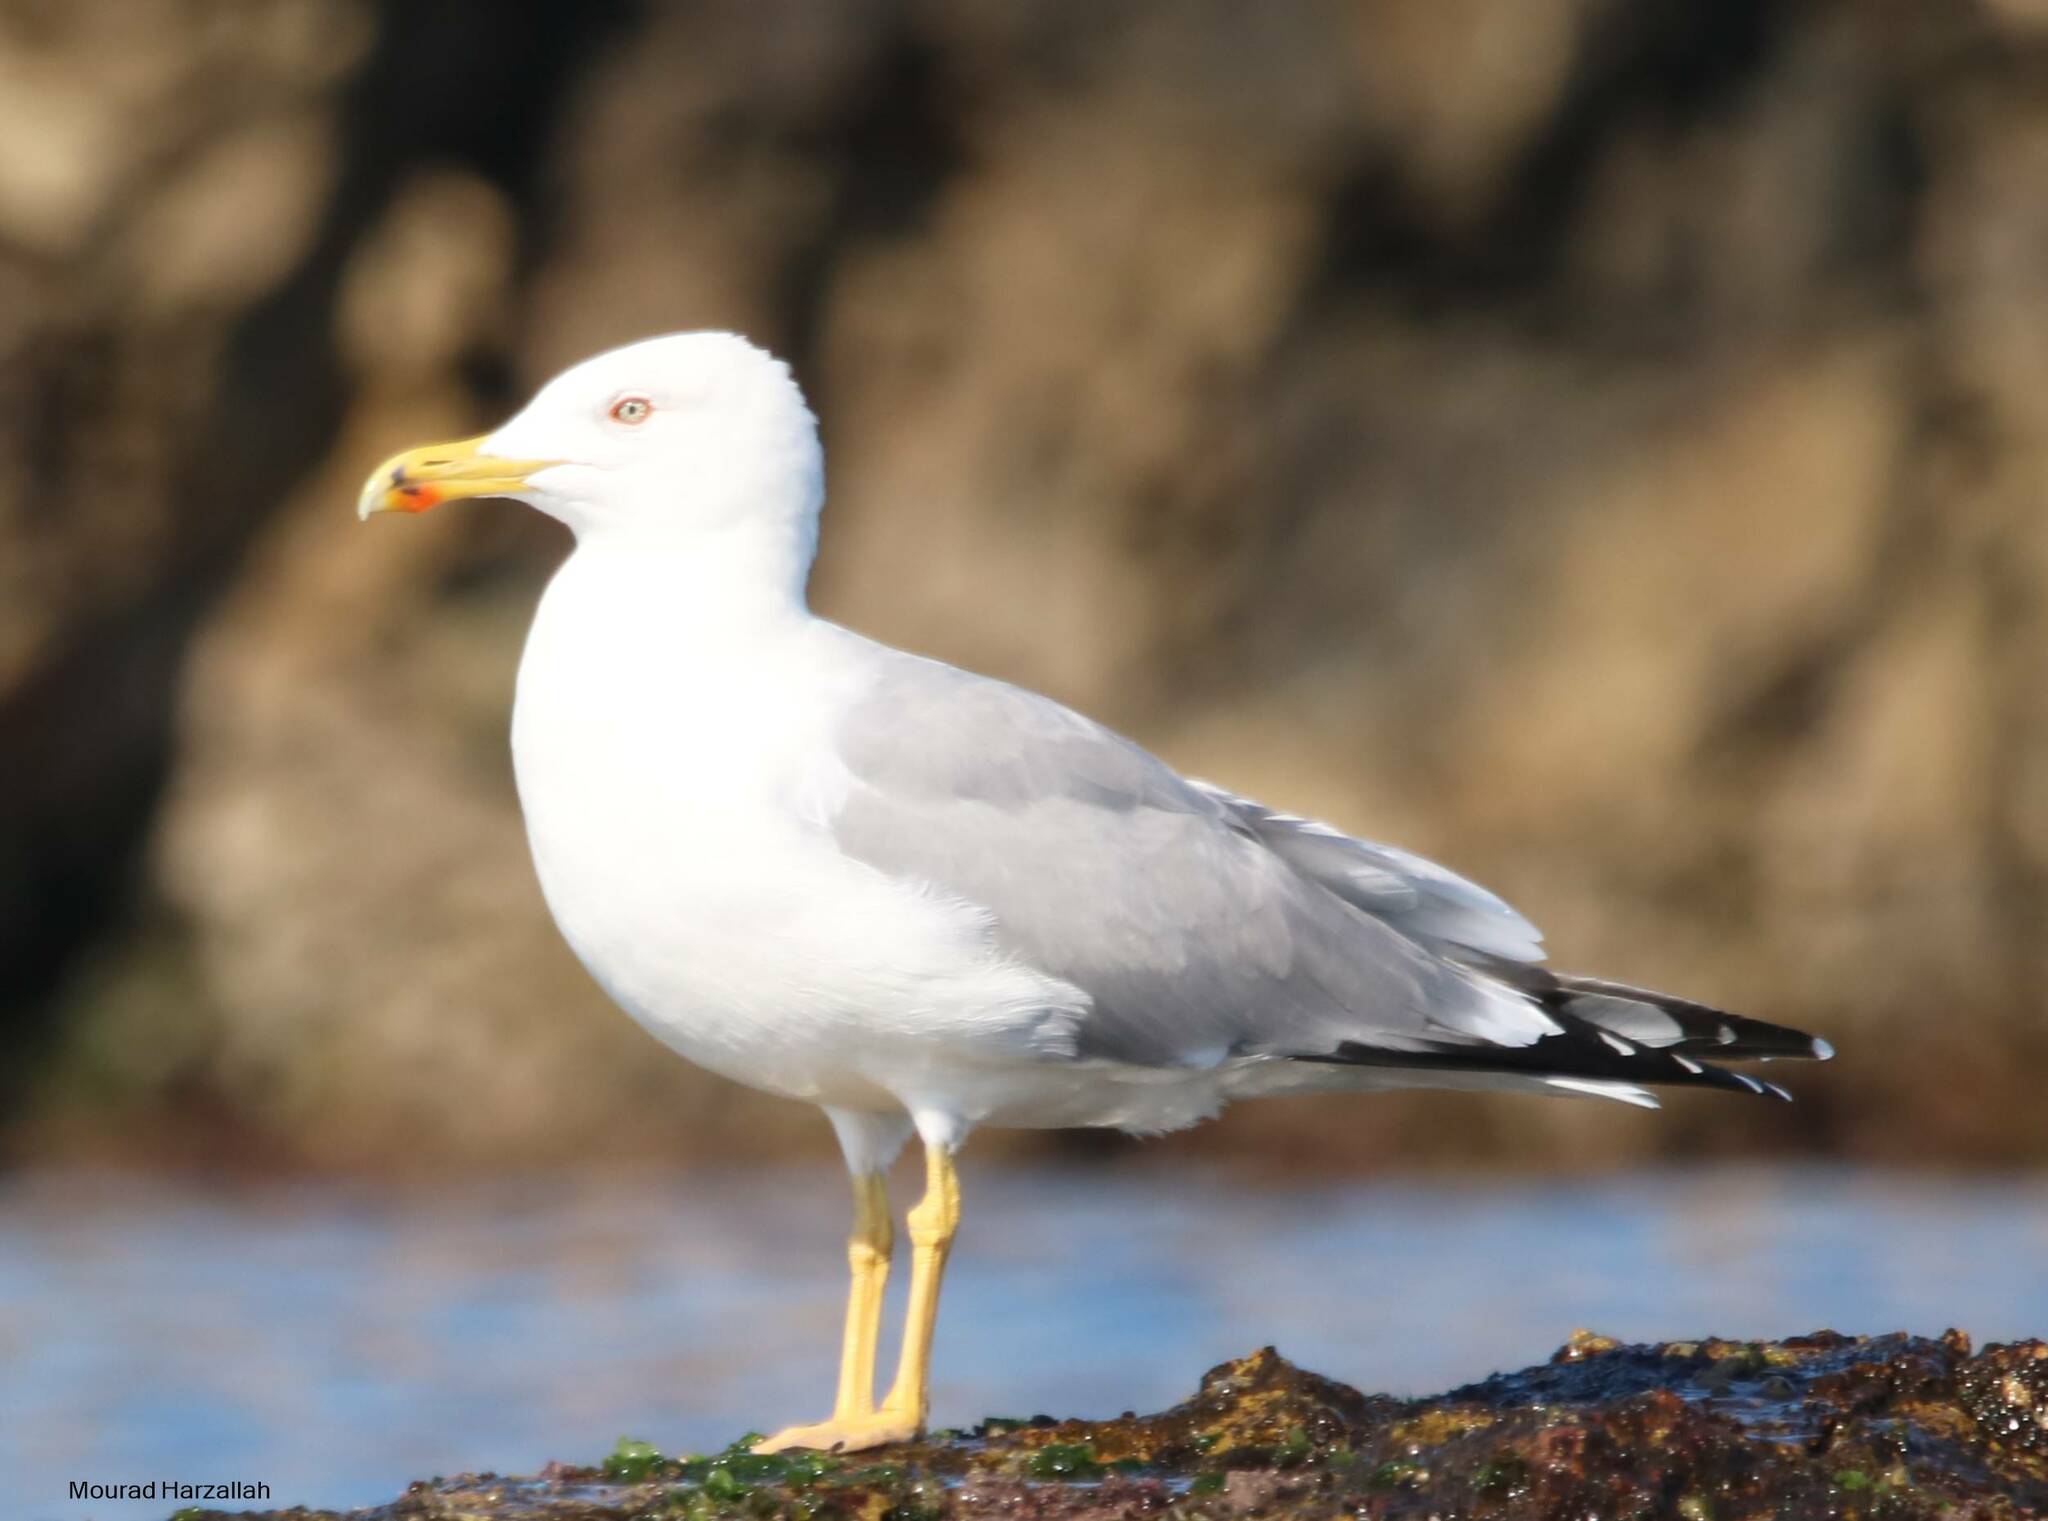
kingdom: Animalia
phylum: Chordata
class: Aves
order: Charadriiformes
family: Laridae
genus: Larus
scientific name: Larus michahellis
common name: Yellow-legged gull
